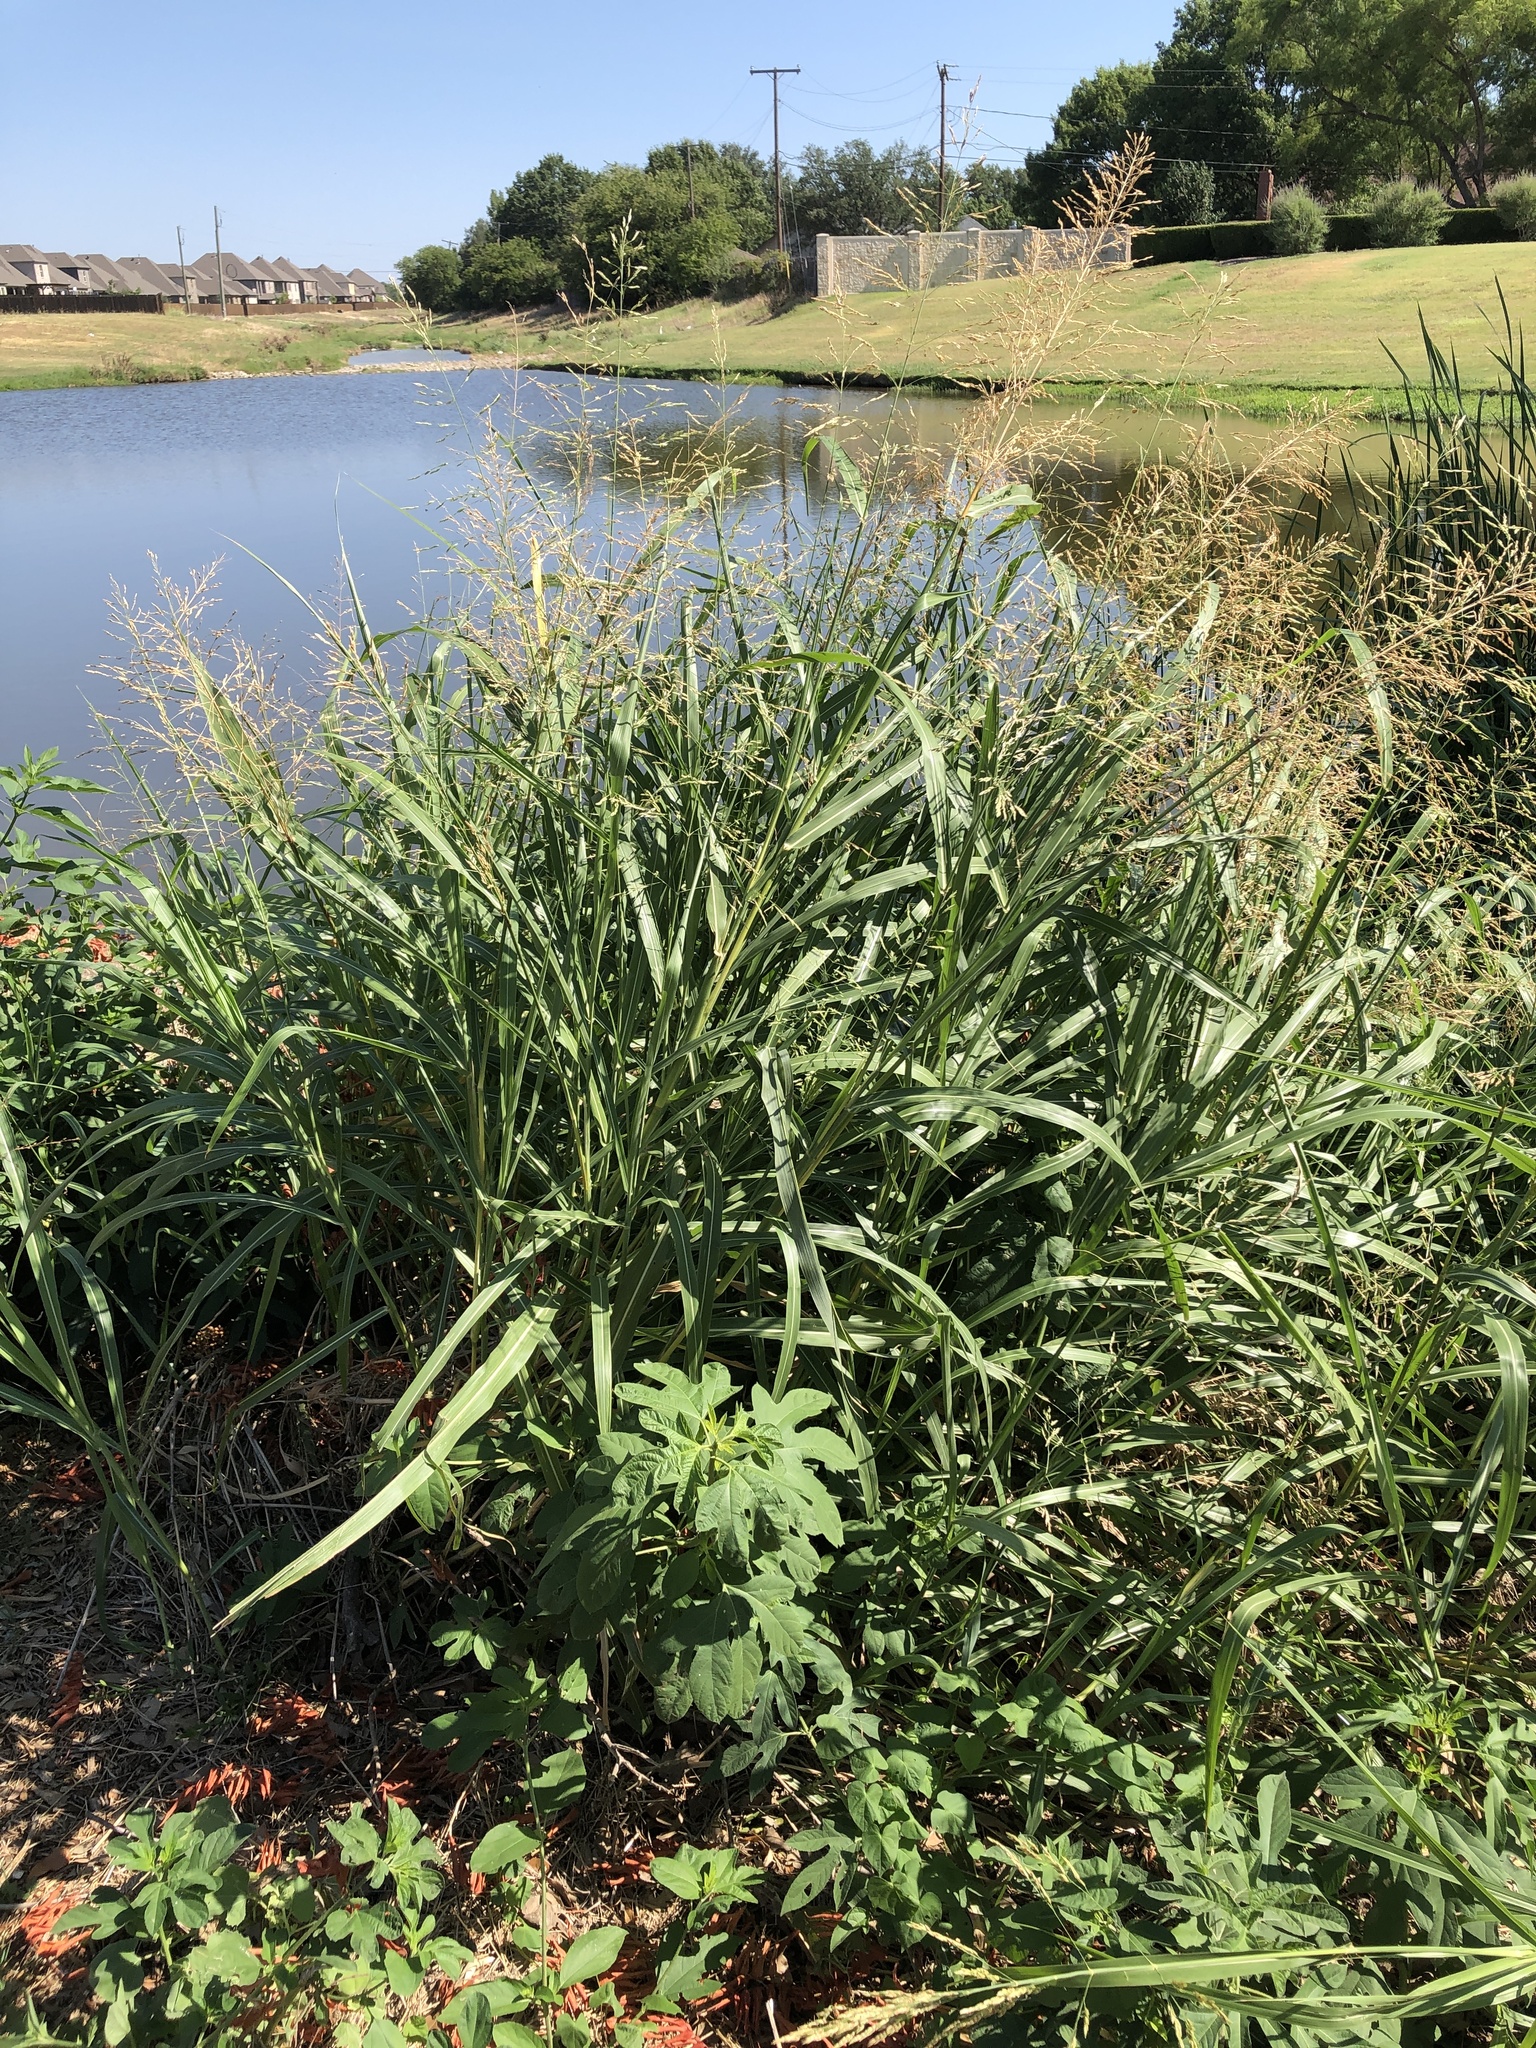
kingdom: Plantae
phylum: Tracheophyta
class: Liliopsida
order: Poales
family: Poaceae
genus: Sorghum
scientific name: Sorghum halepense
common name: Johnson-grass
